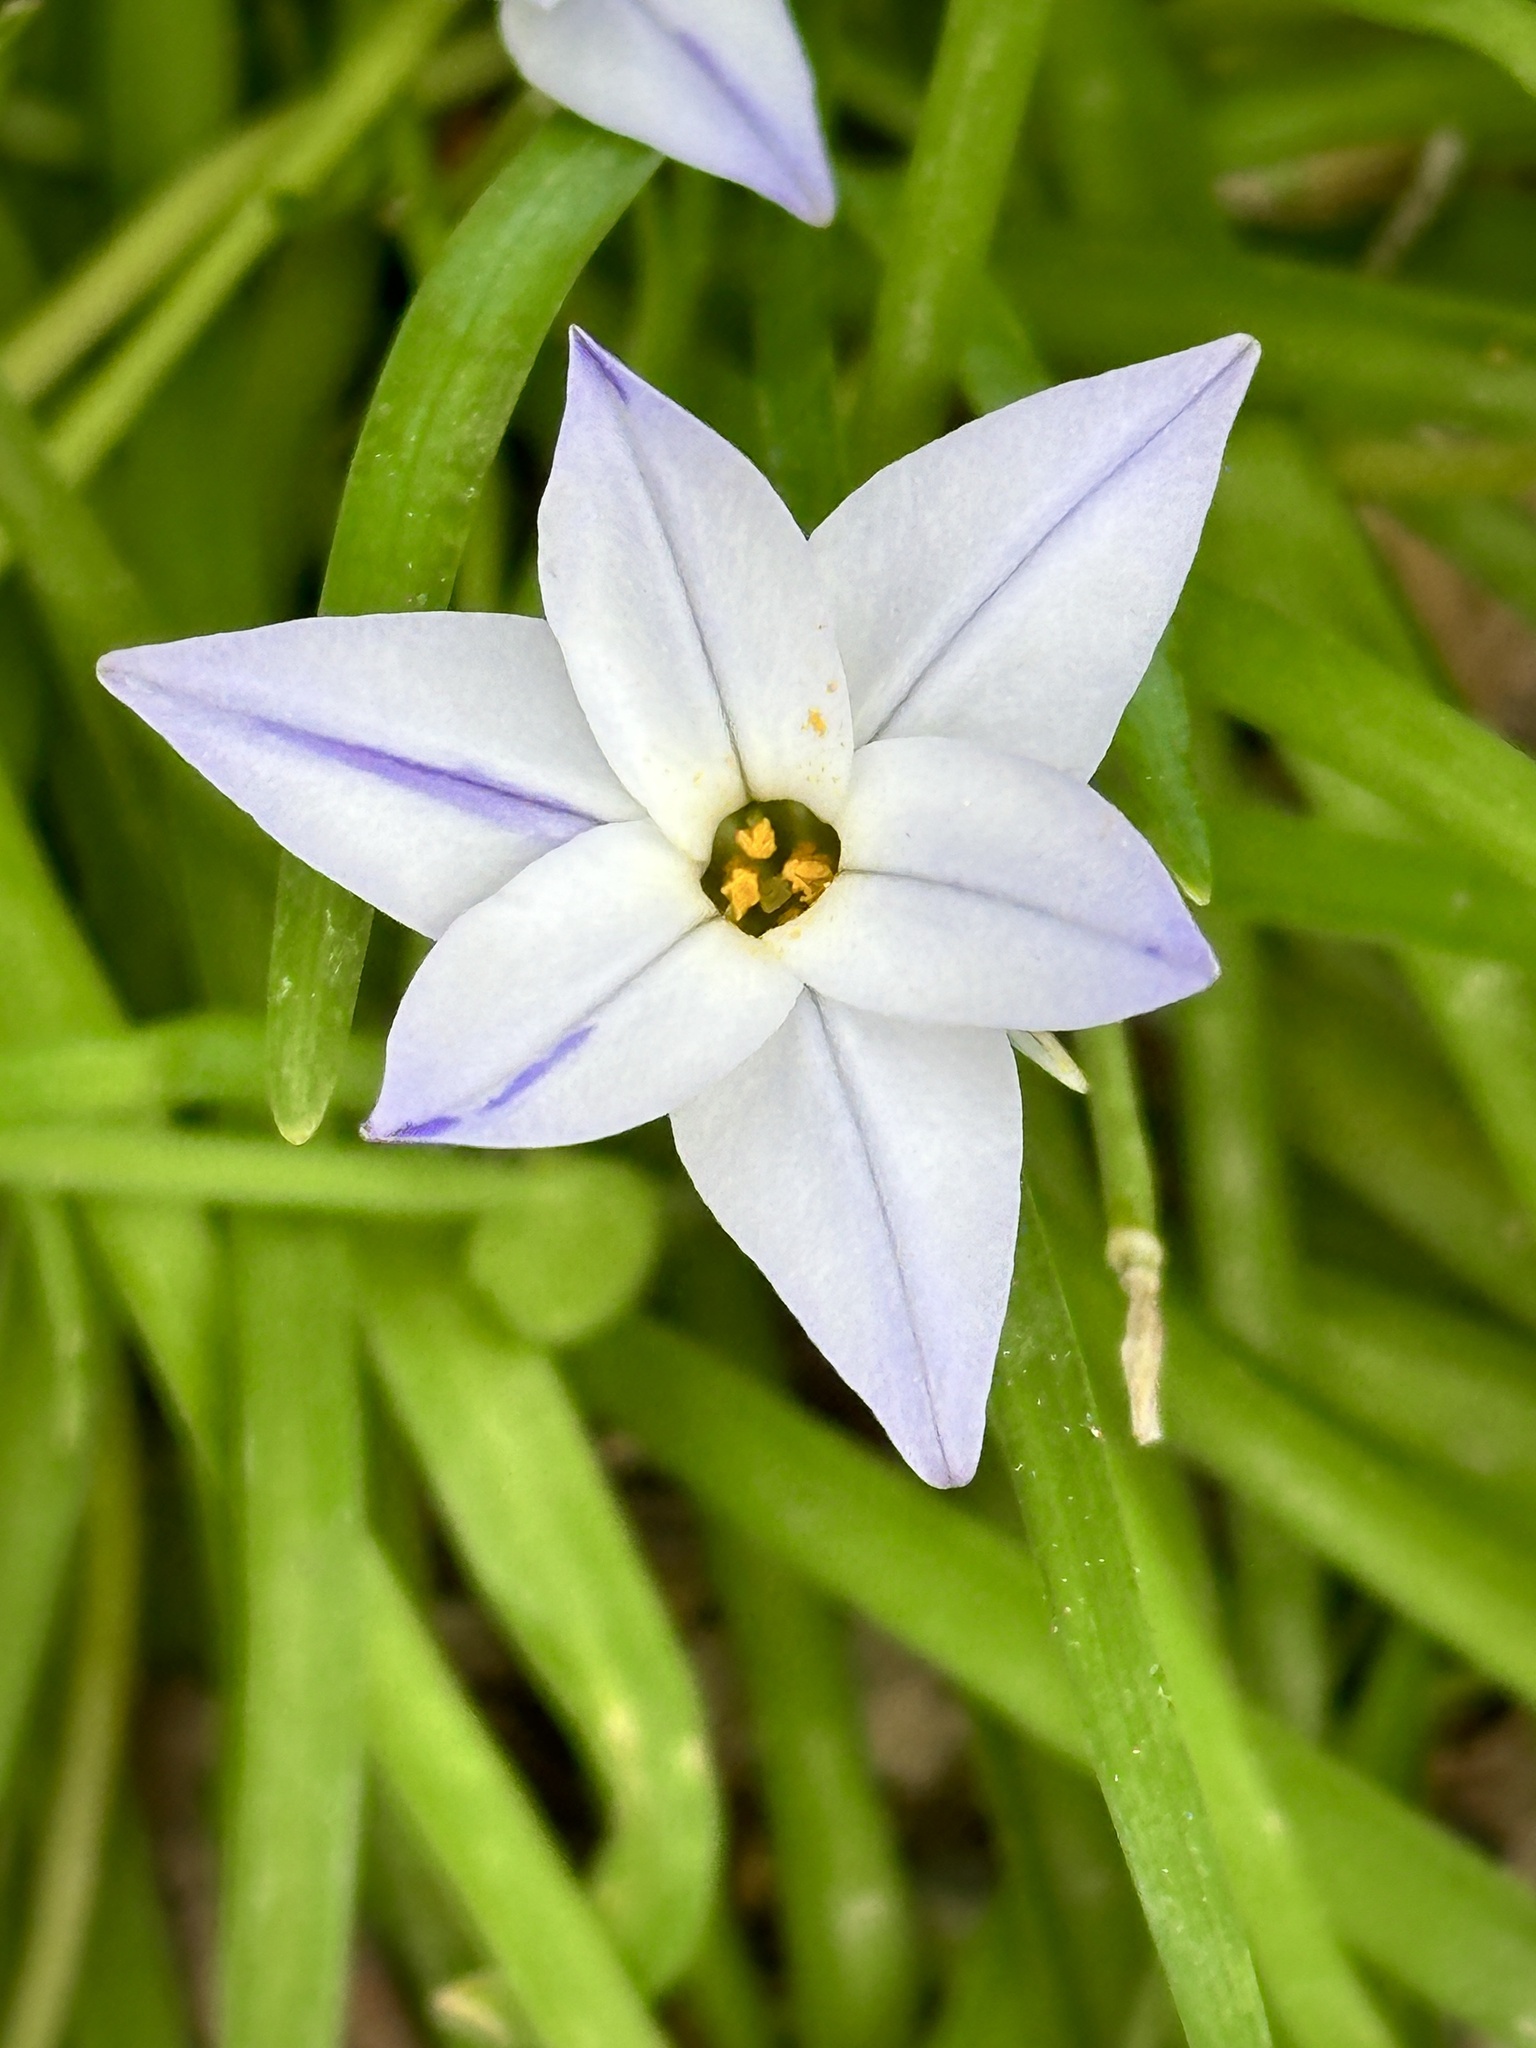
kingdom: Plantae
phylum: Tracheophyta
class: Liliopsida
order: Asparagales
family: Amaryllidaceae
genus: Ipheion
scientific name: Ipheion uniflorum
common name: Spring starflower
